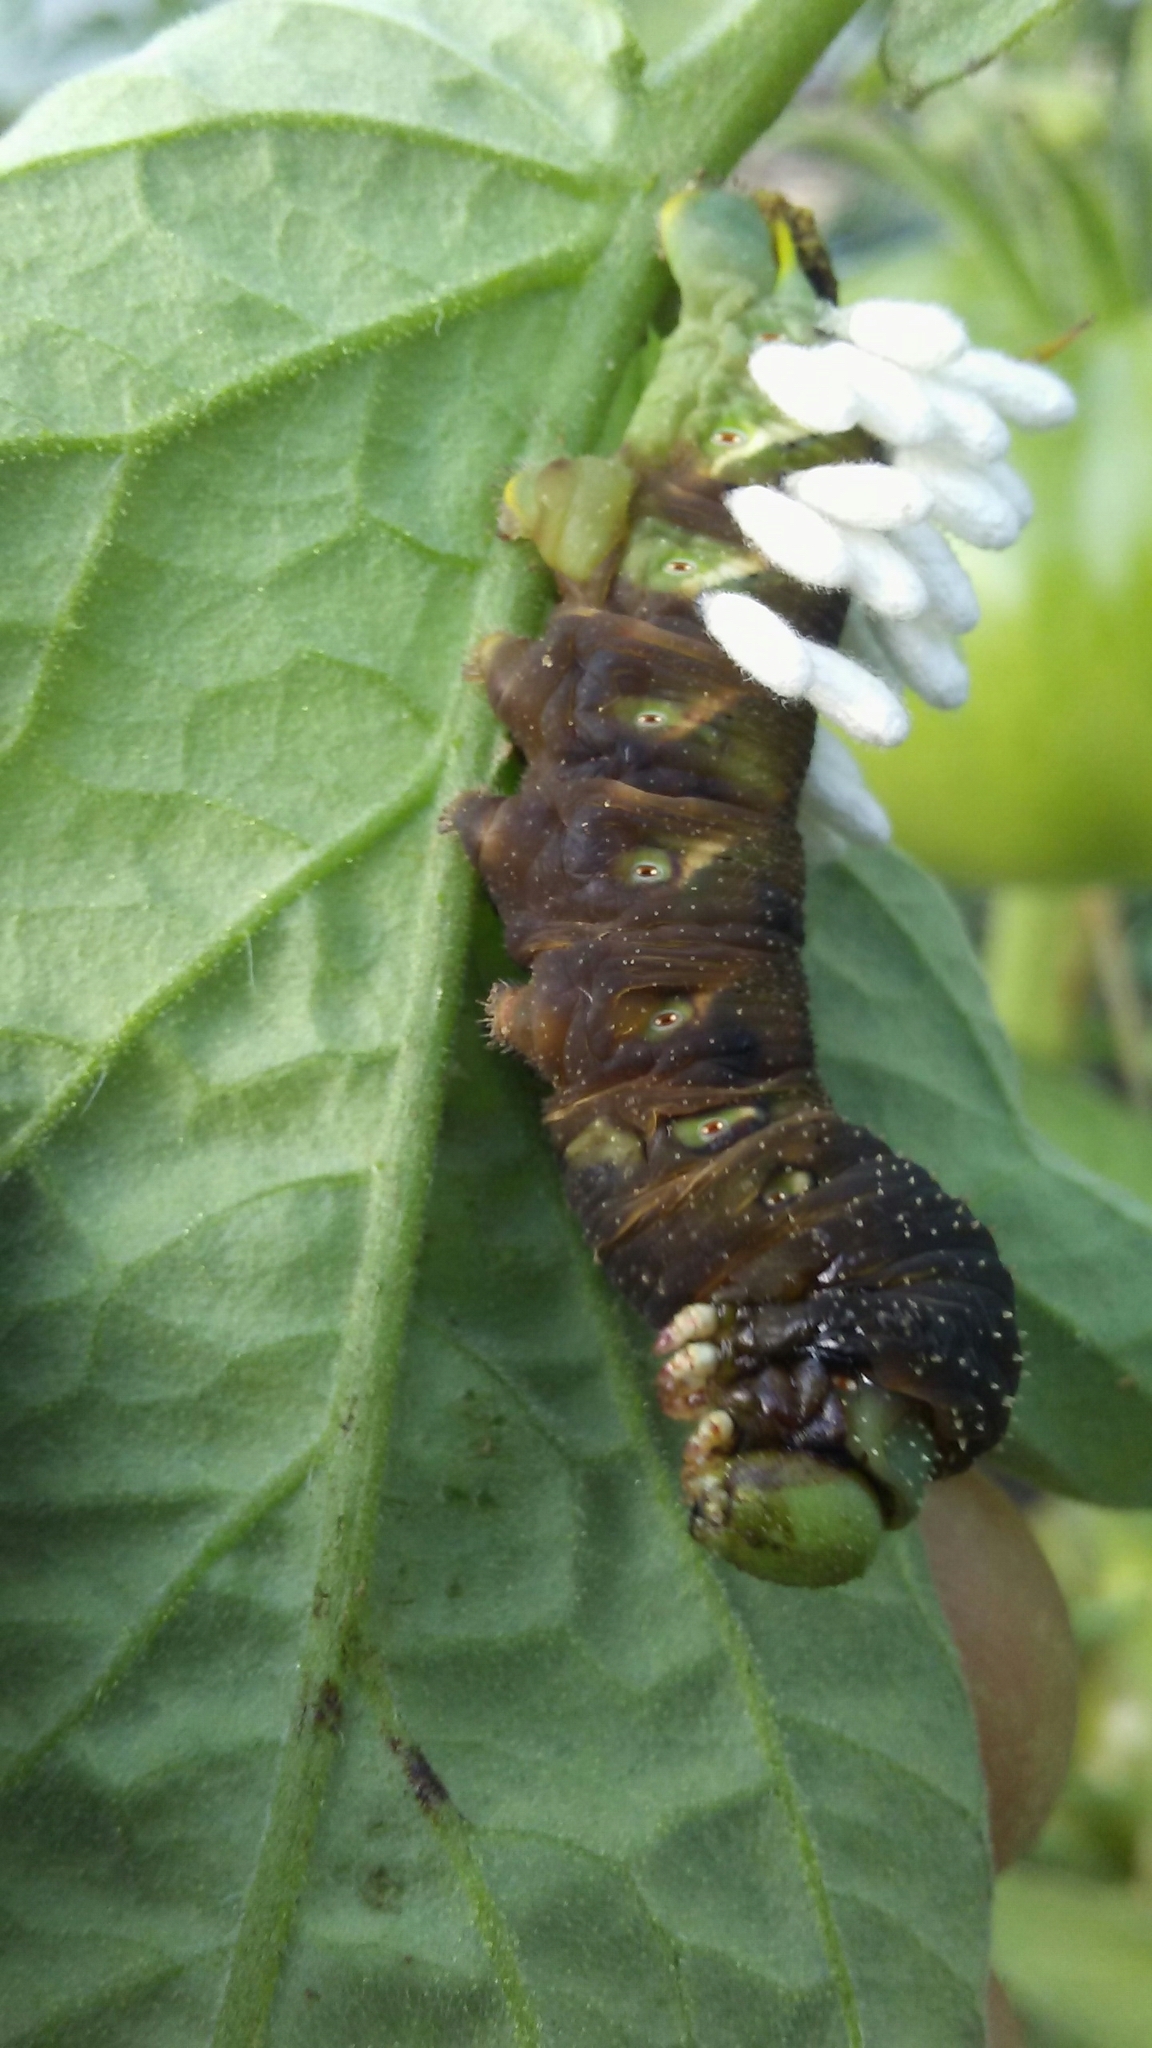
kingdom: Animalia
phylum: Arthropoda
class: Insecta
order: Hymenoptera
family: Braconidae
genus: Cotesia
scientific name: Cotesia congregata
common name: Hornworm parasitoid wasp
